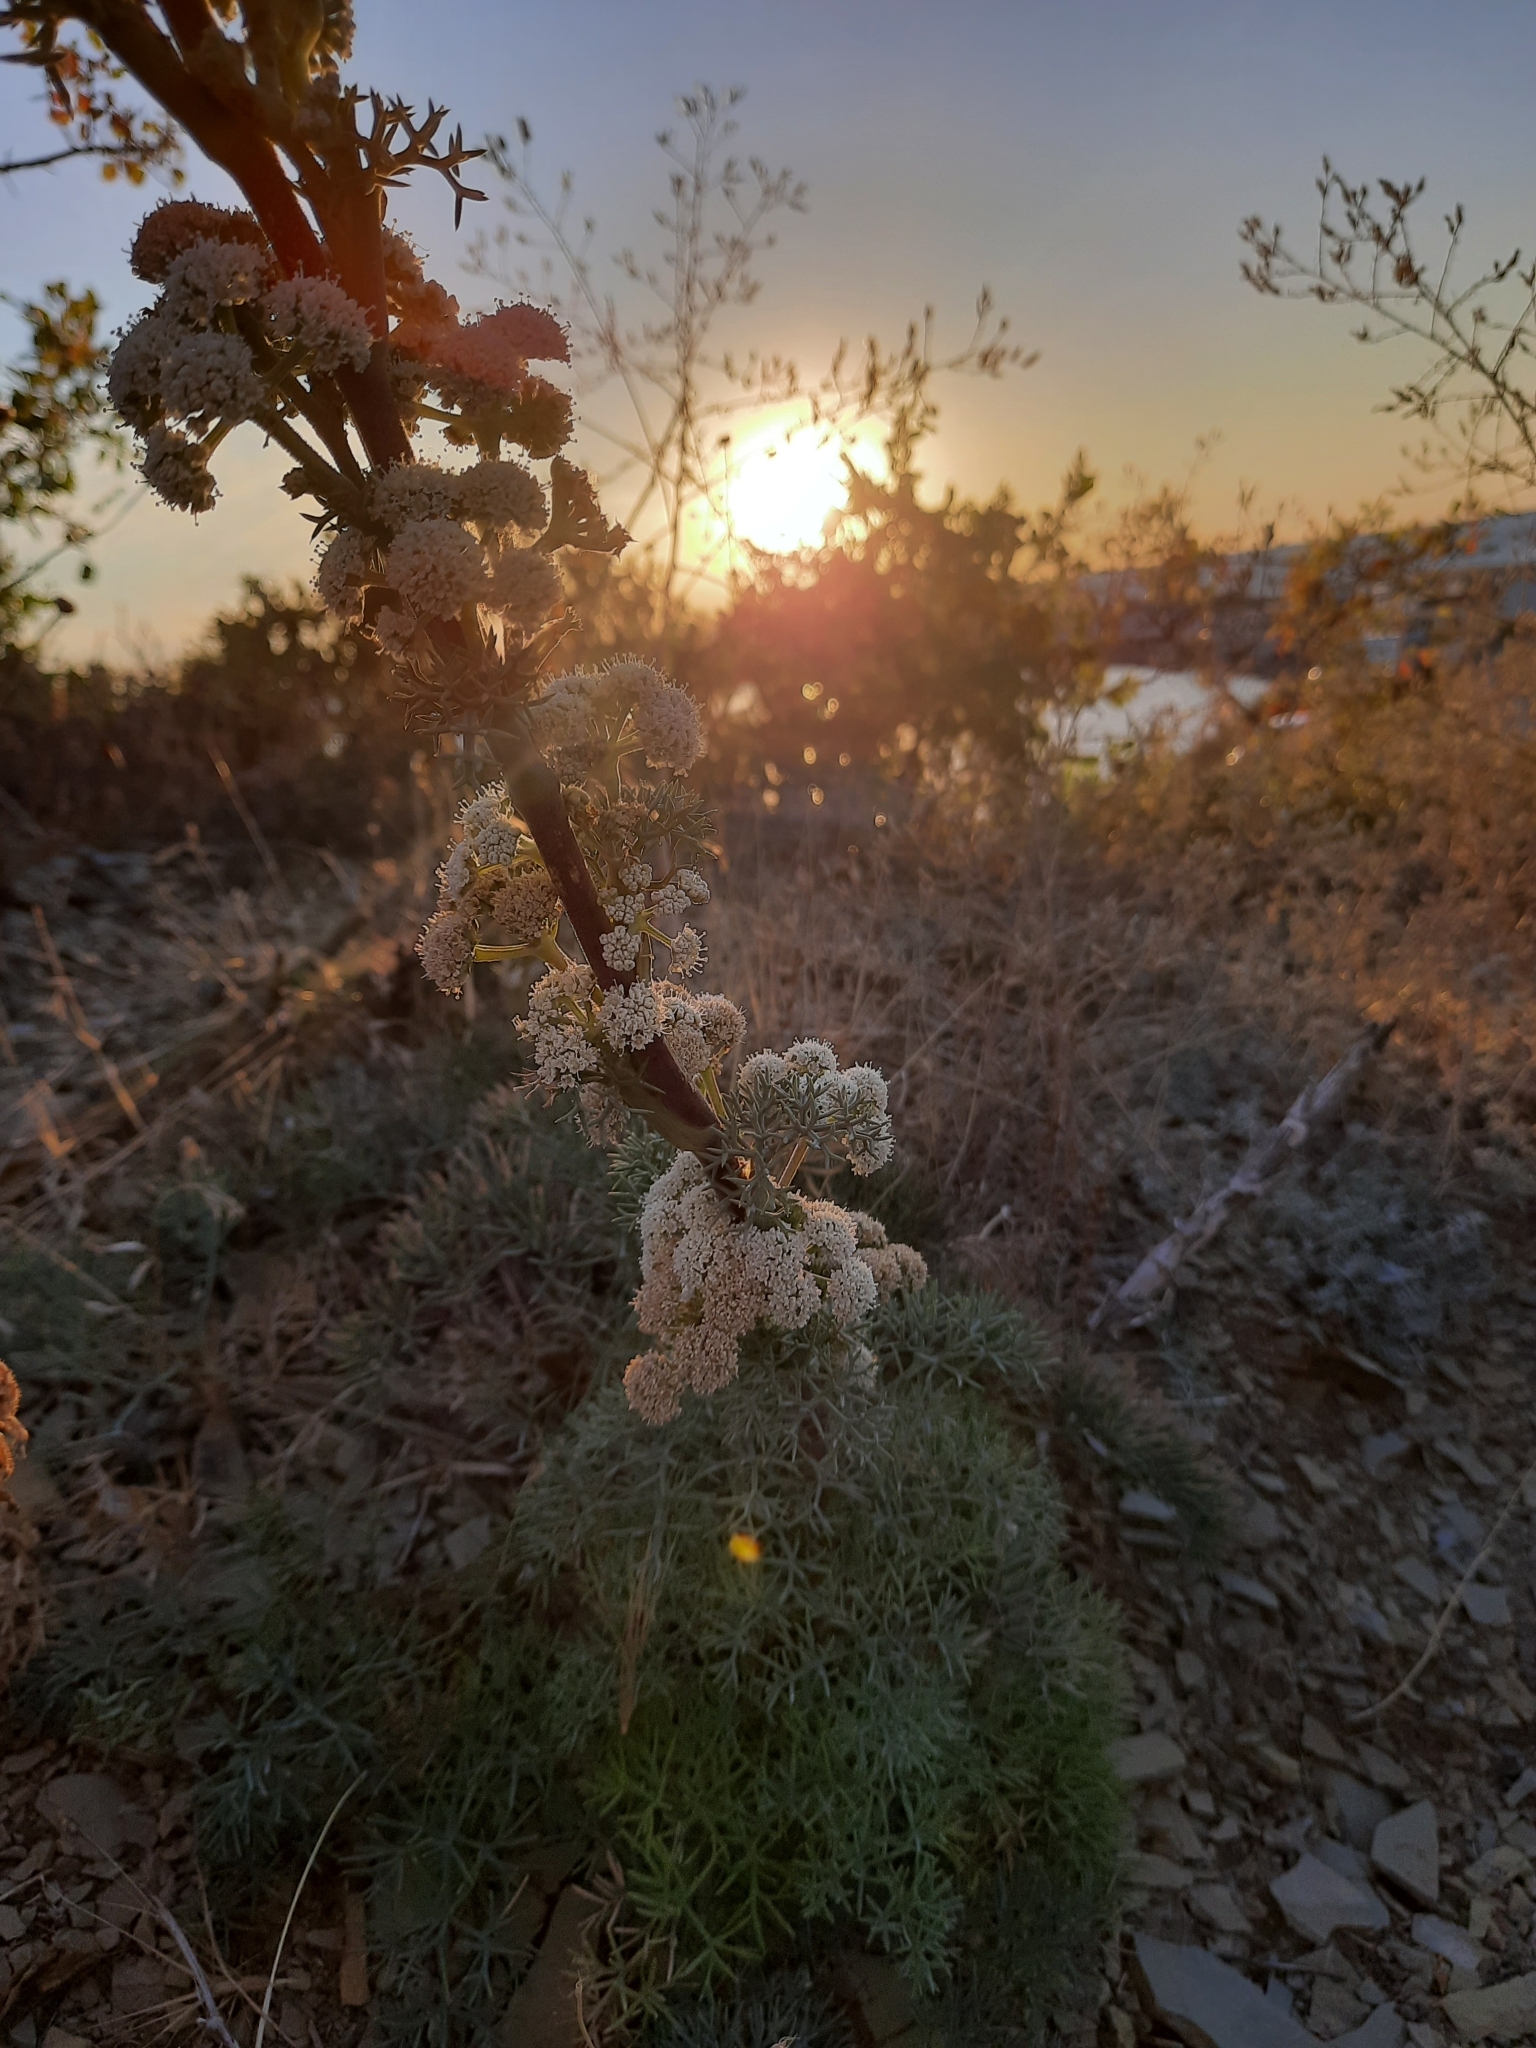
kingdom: Plantae
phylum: Tracheophyta
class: Magnoliopsida
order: Apiales
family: Apiaceae
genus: Seseli
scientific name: Seseli ponticum
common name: Pontic seseli
